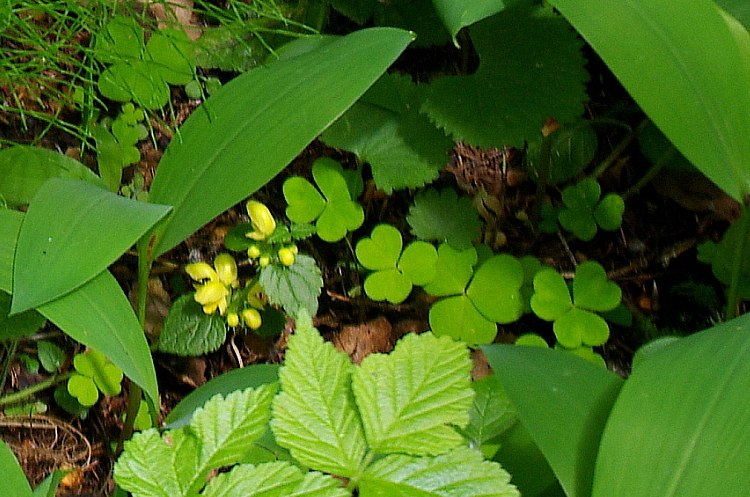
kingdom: Plantae
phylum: Tracheophyta
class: Magnoliopsida
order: Lamiales
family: Lamiaceae
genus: Lamium
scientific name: Lamium galeobdolon
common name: Yellow archangel
